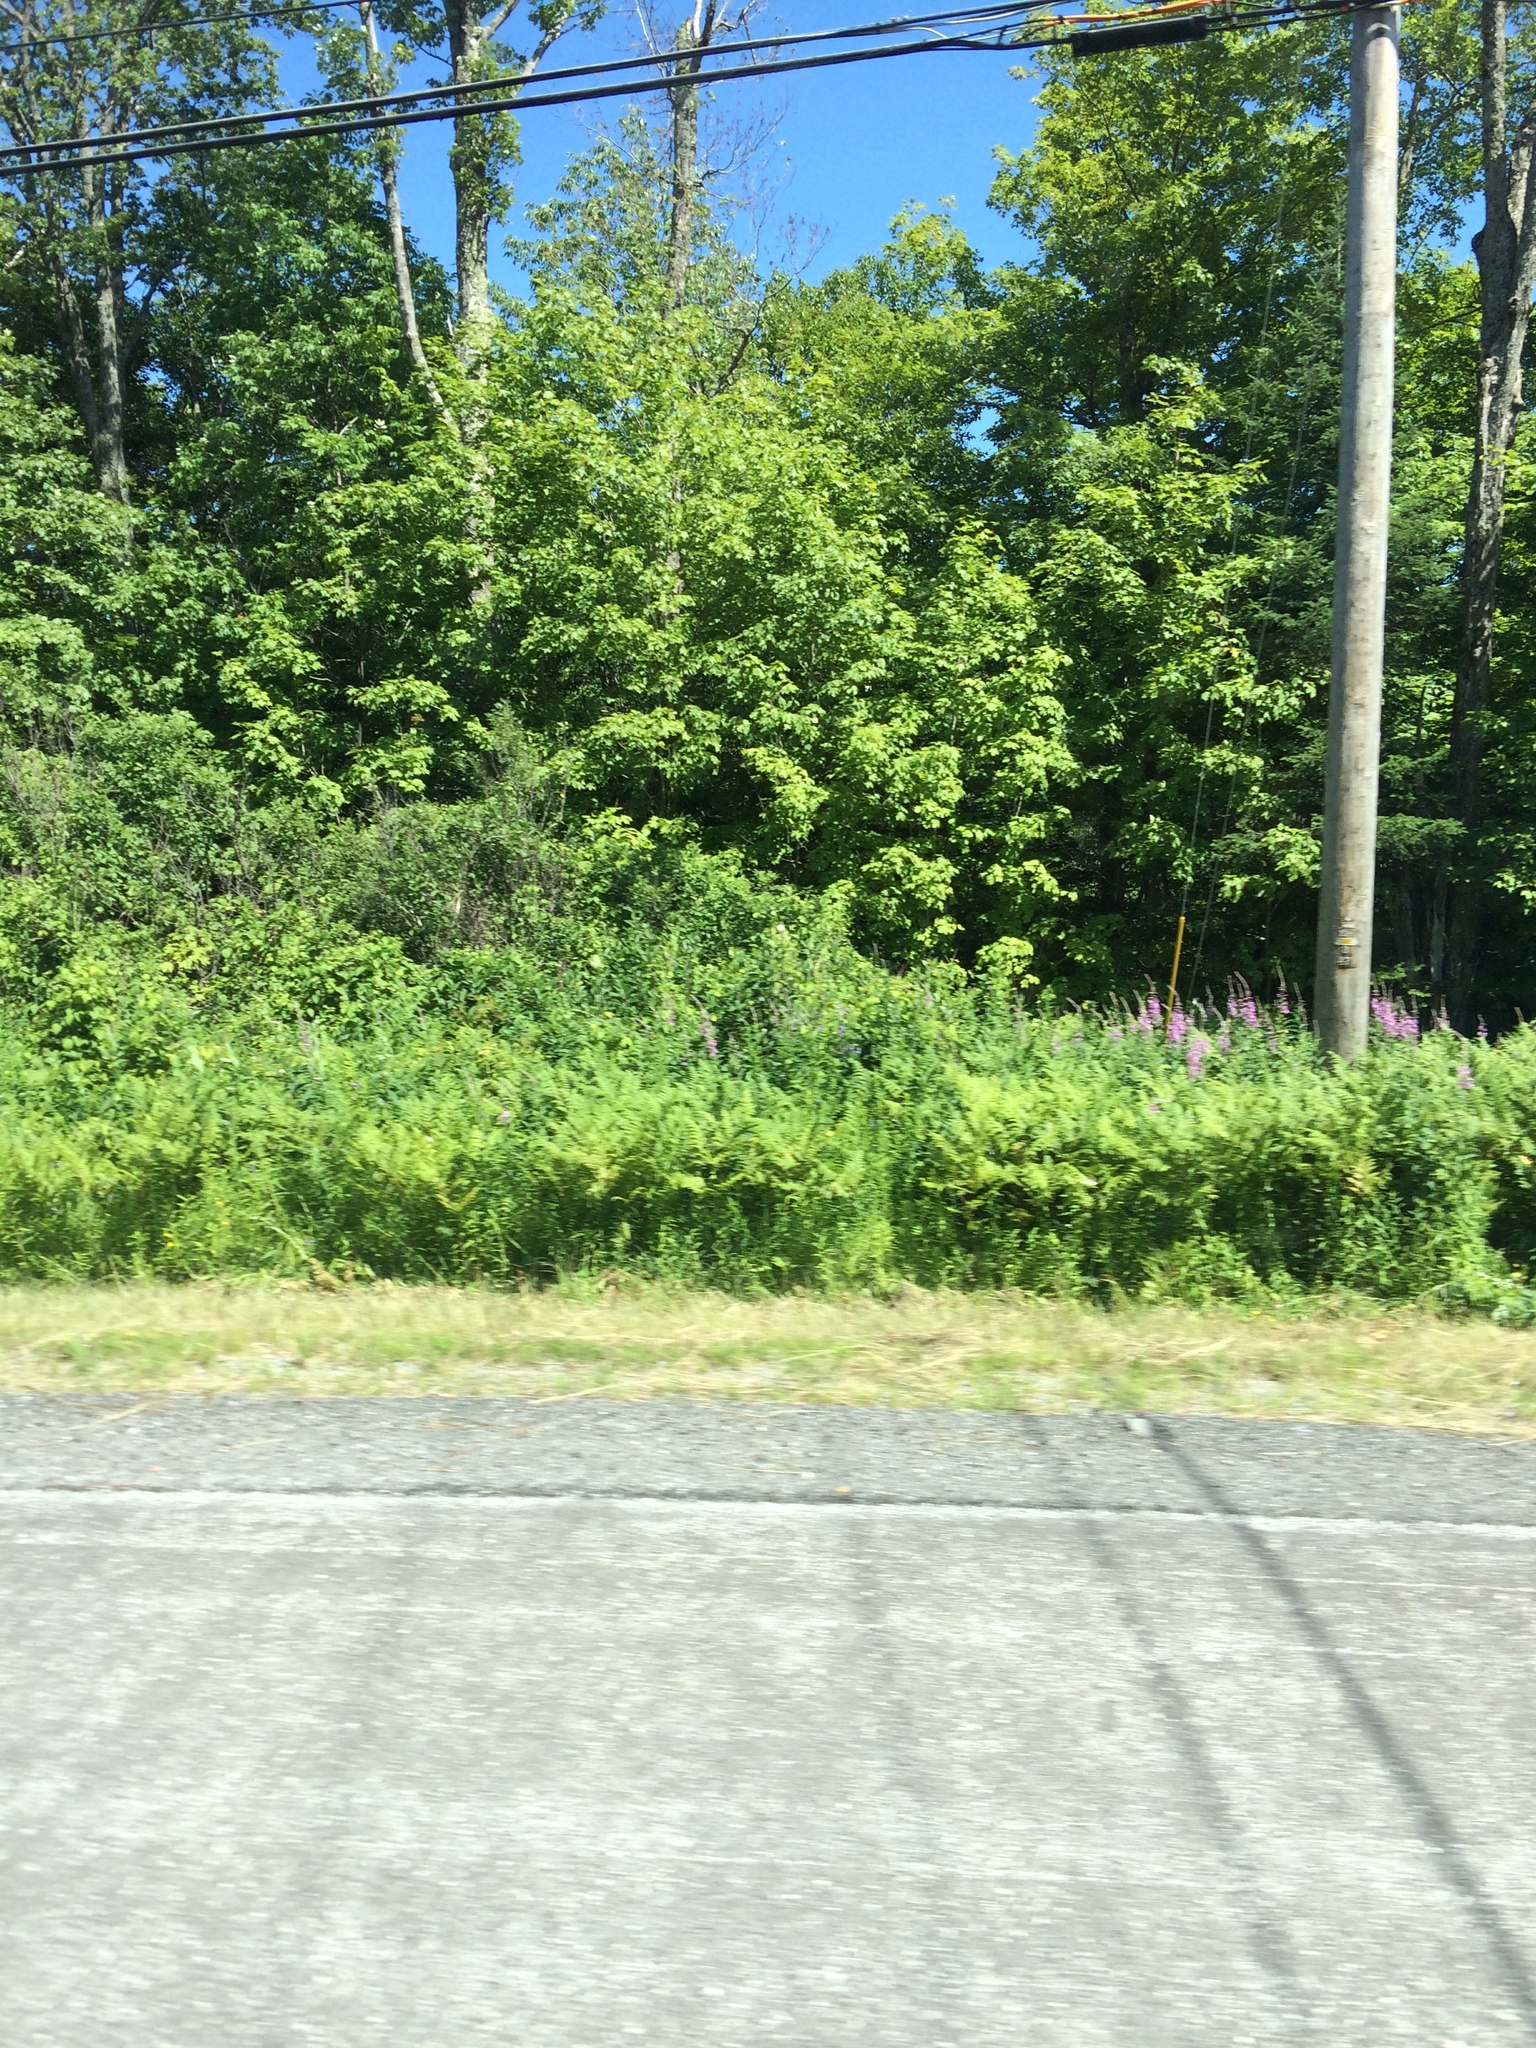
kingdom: Plantae
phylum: Tracheophyta
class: Magnoliopsida
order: Myrtales
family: Onagraceae
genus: Chamaenerion
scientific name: Chamaenerion angustifolium
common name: Fireweed
